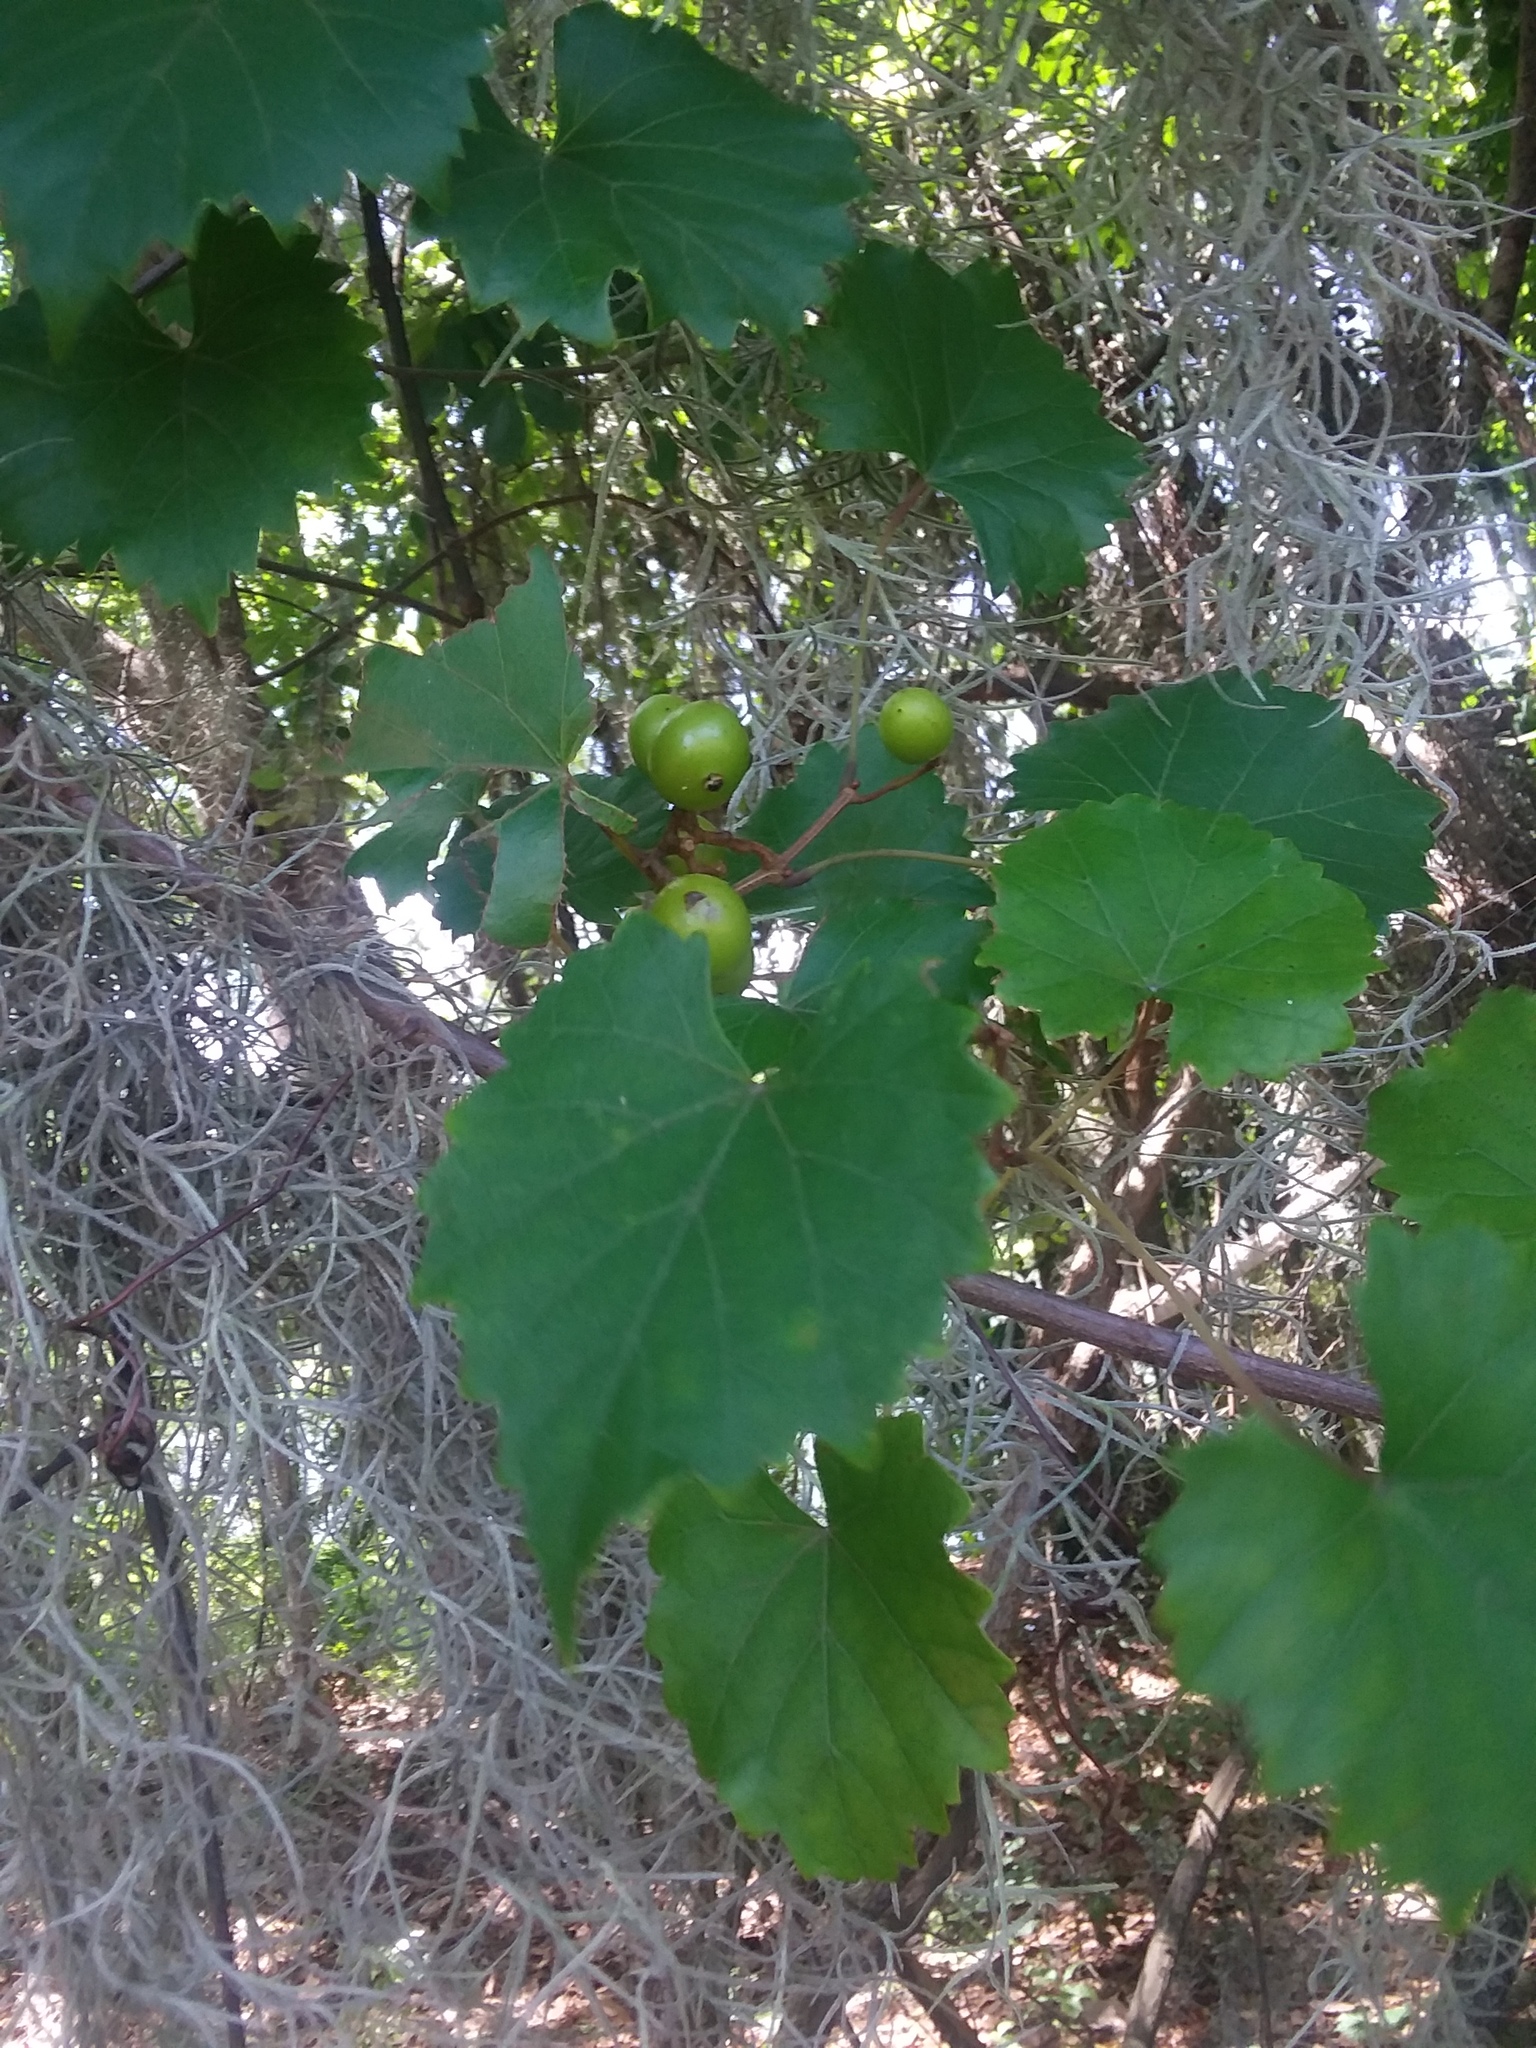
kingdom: Plantae
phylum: Tracheophyta
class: Magnoliopsida
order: Vitales
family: Vitaceae
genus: Vitis
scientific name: Vitis rotundifolia
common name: Muscadine grape
